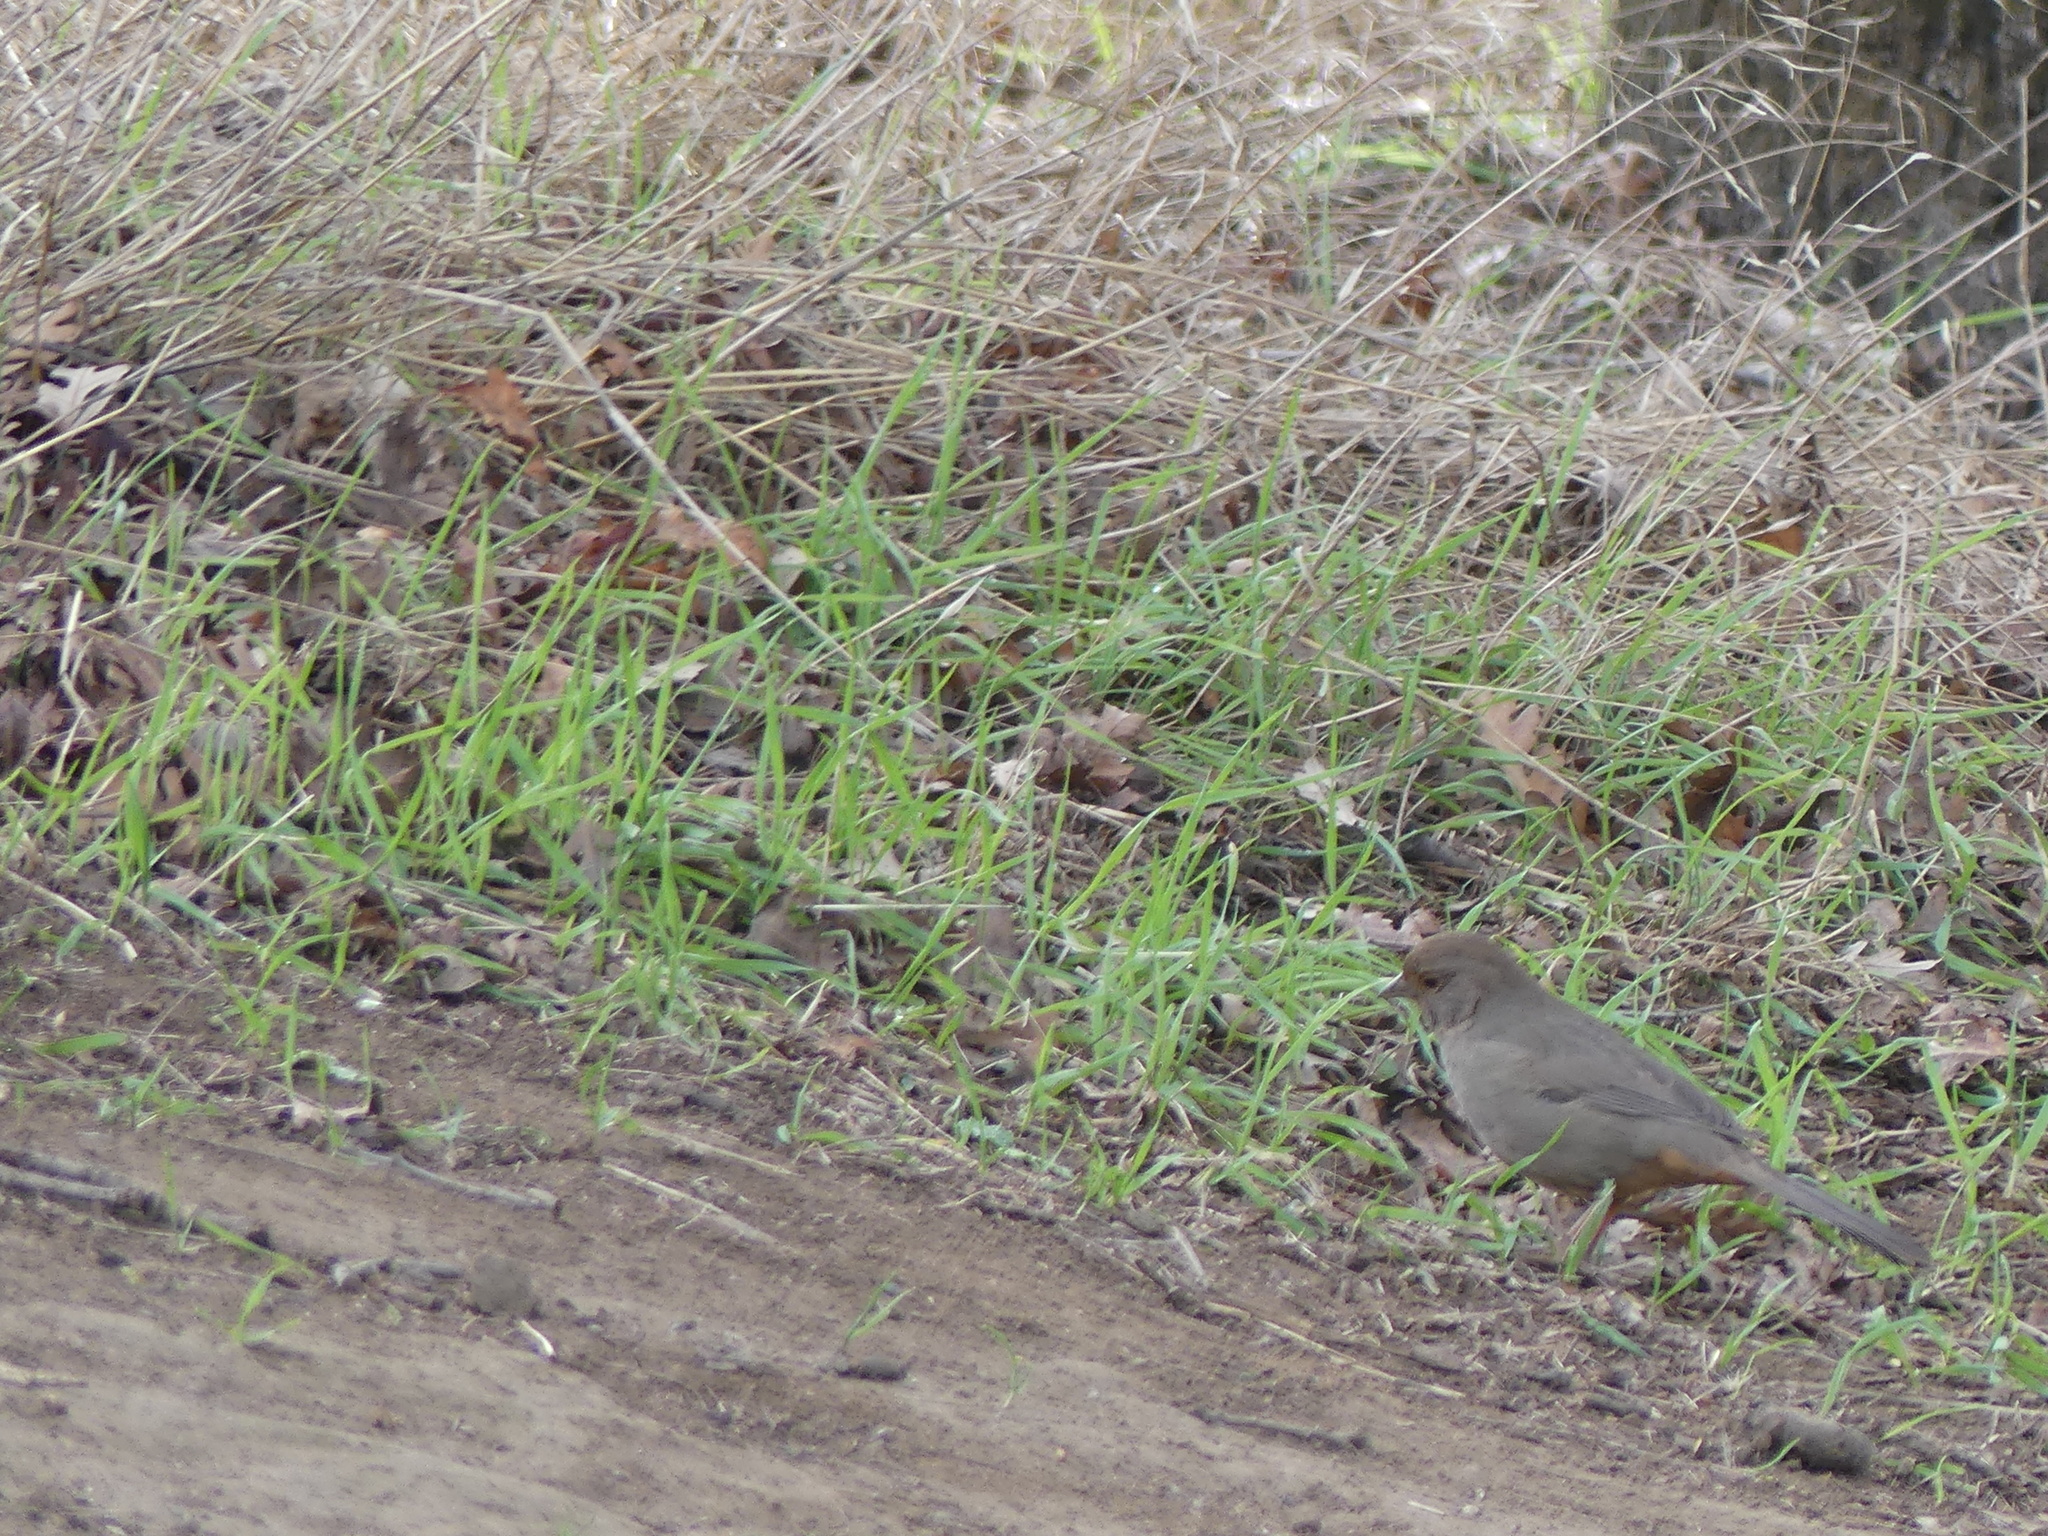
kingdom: Animalia
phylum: Chordata
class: Aves
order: Passeriformes
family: Passerellidae
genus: Melozone
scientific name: Melozone crissalis
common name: California towhee
